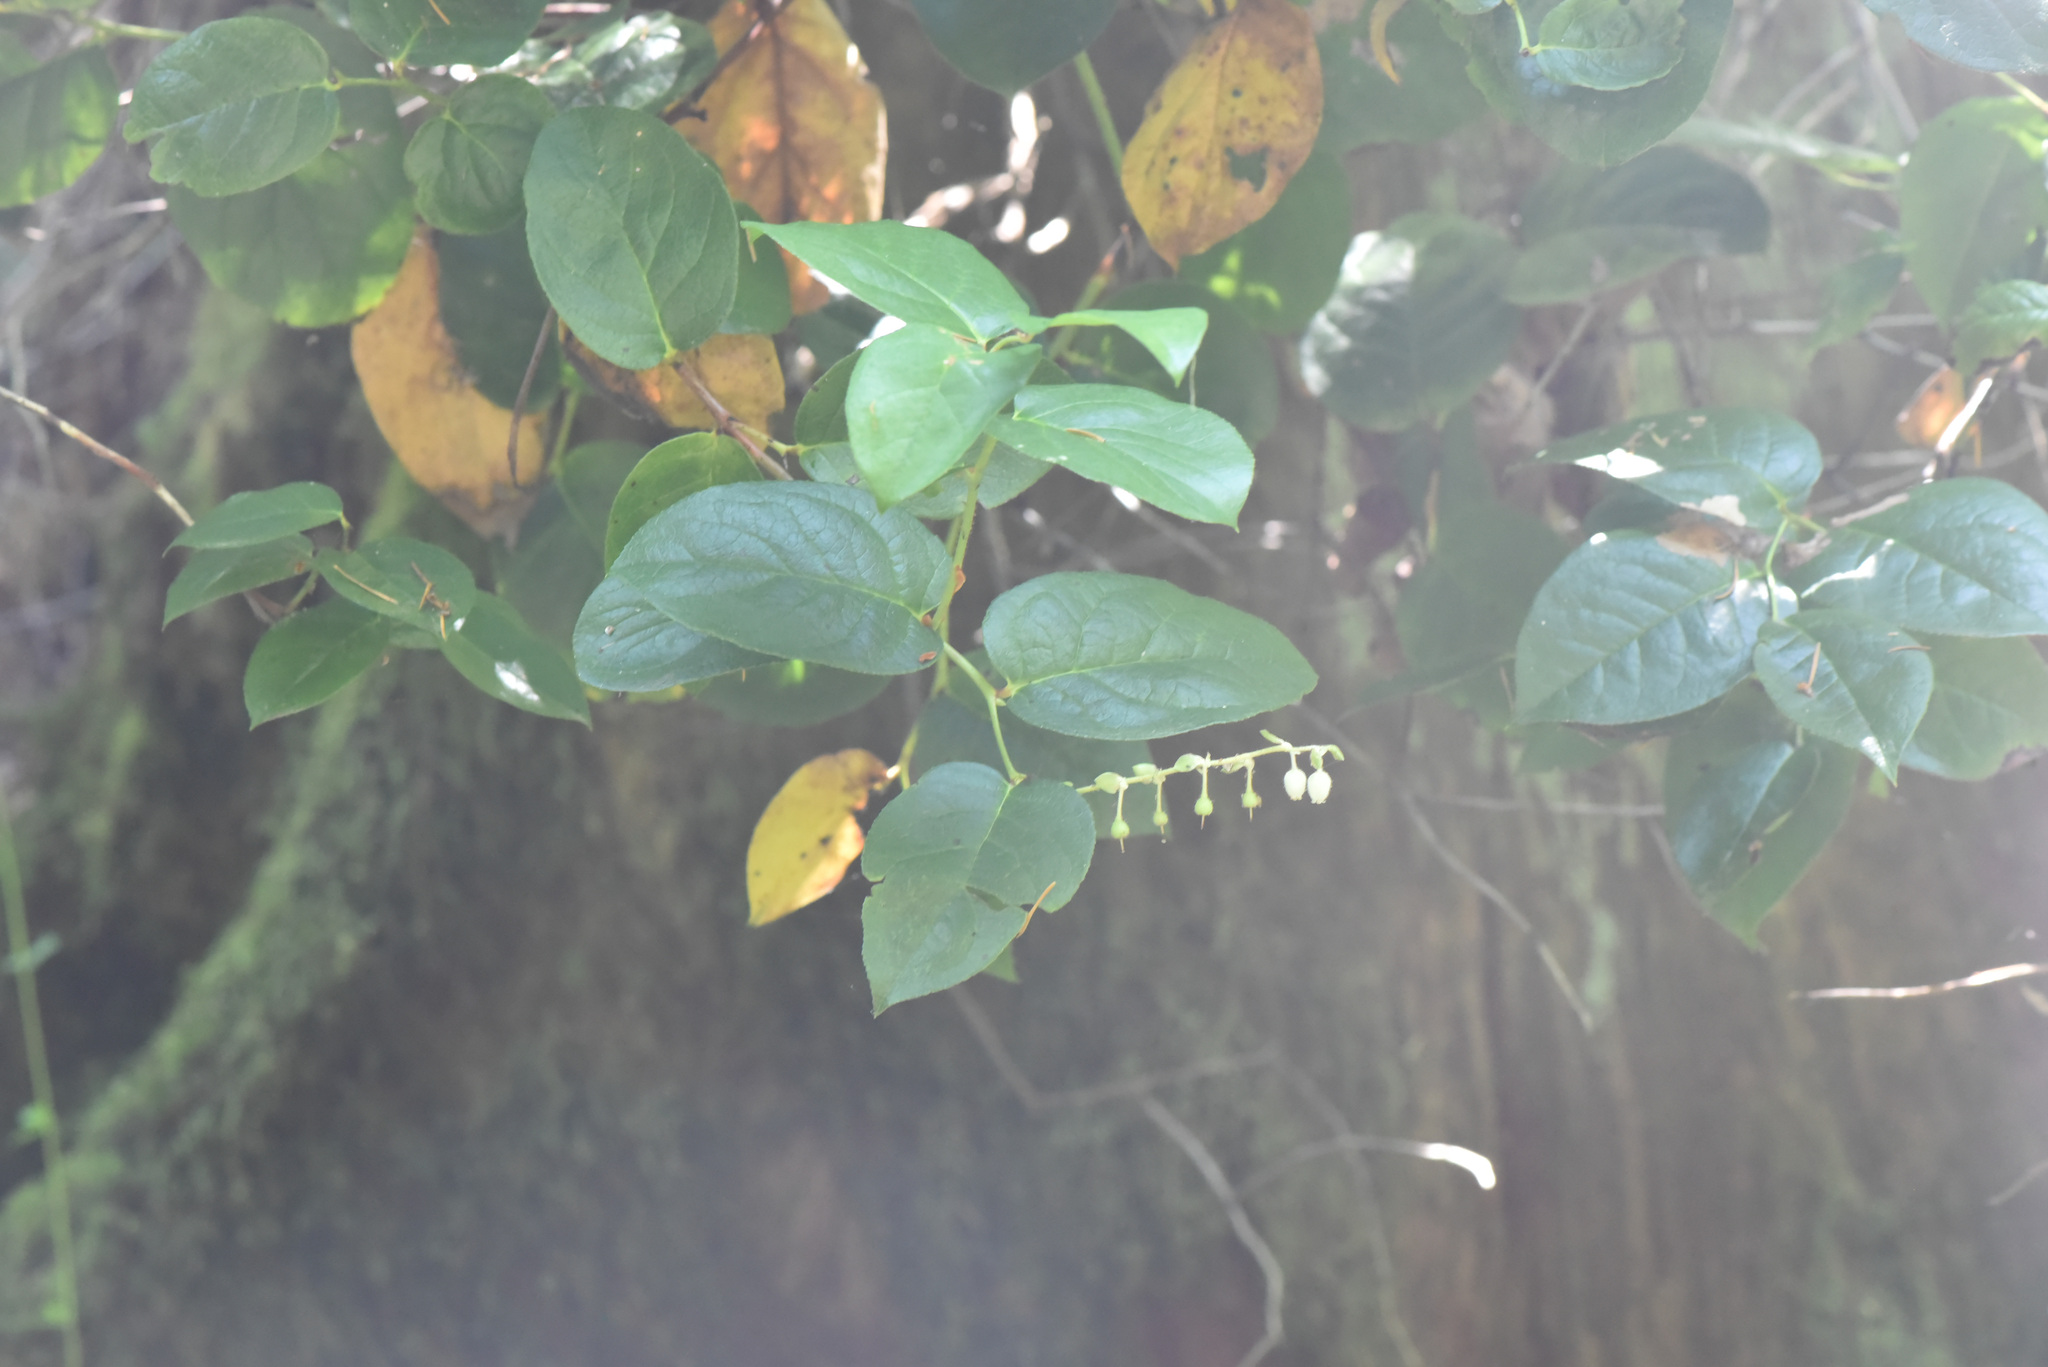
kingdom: Plantae
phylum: Tracheophyta
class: Magnoliopsida
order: Ericales
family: Ericaceae
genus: Gaultheria
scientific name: Gaultheria shallon
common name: Shallon
